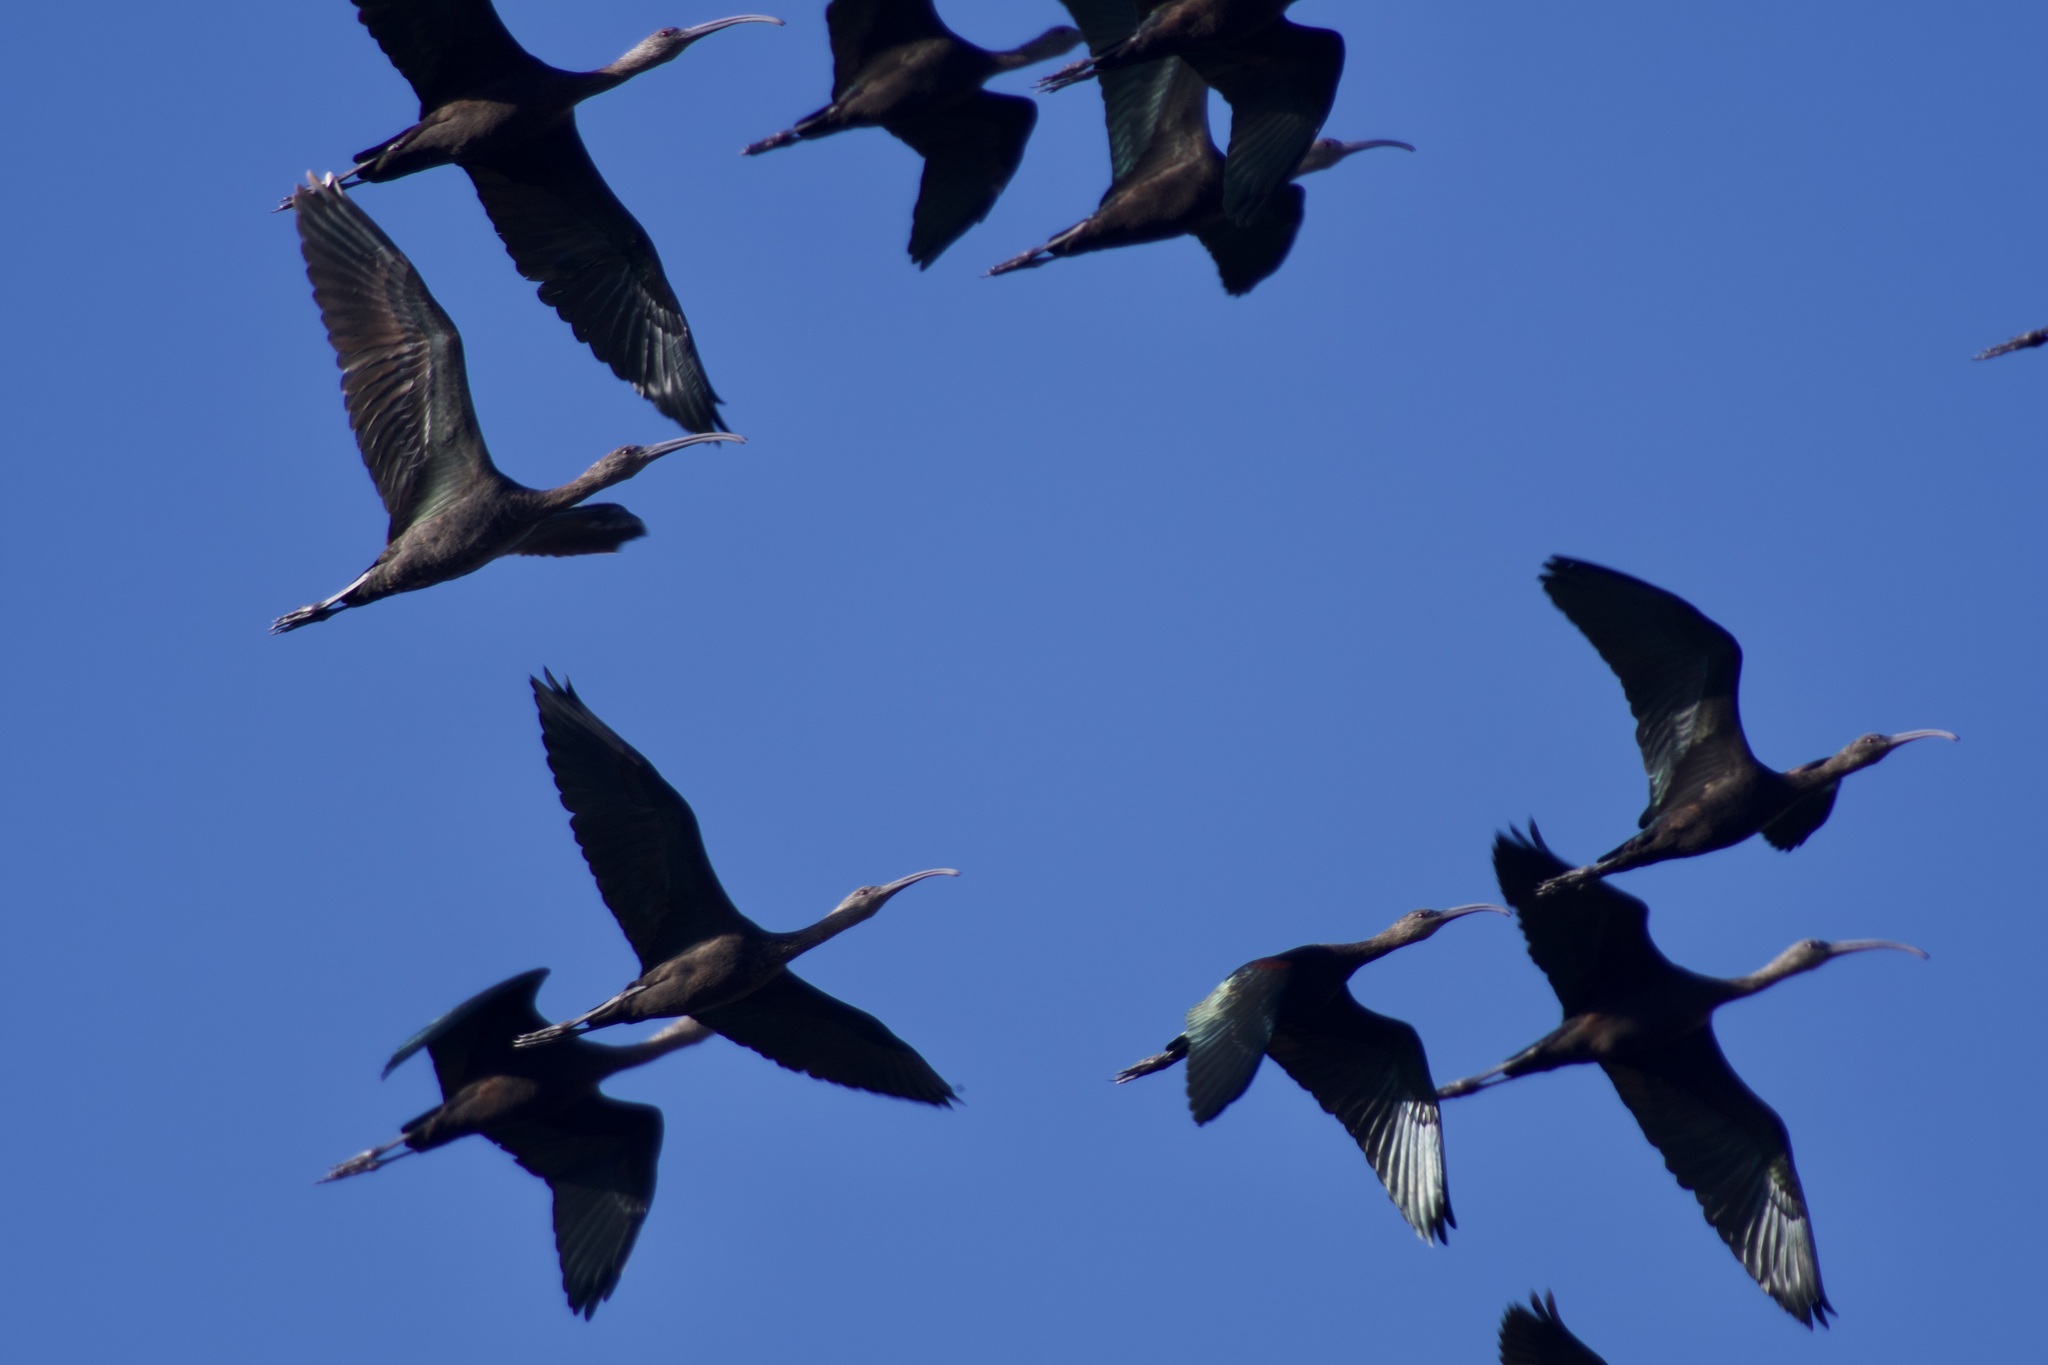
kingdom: Animalia
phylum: Chordata
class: Aves
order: Pelecaniformes
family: Threskiornithidae
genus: Plegadis
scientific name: Plegadis chihi
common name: White-faced ibis
